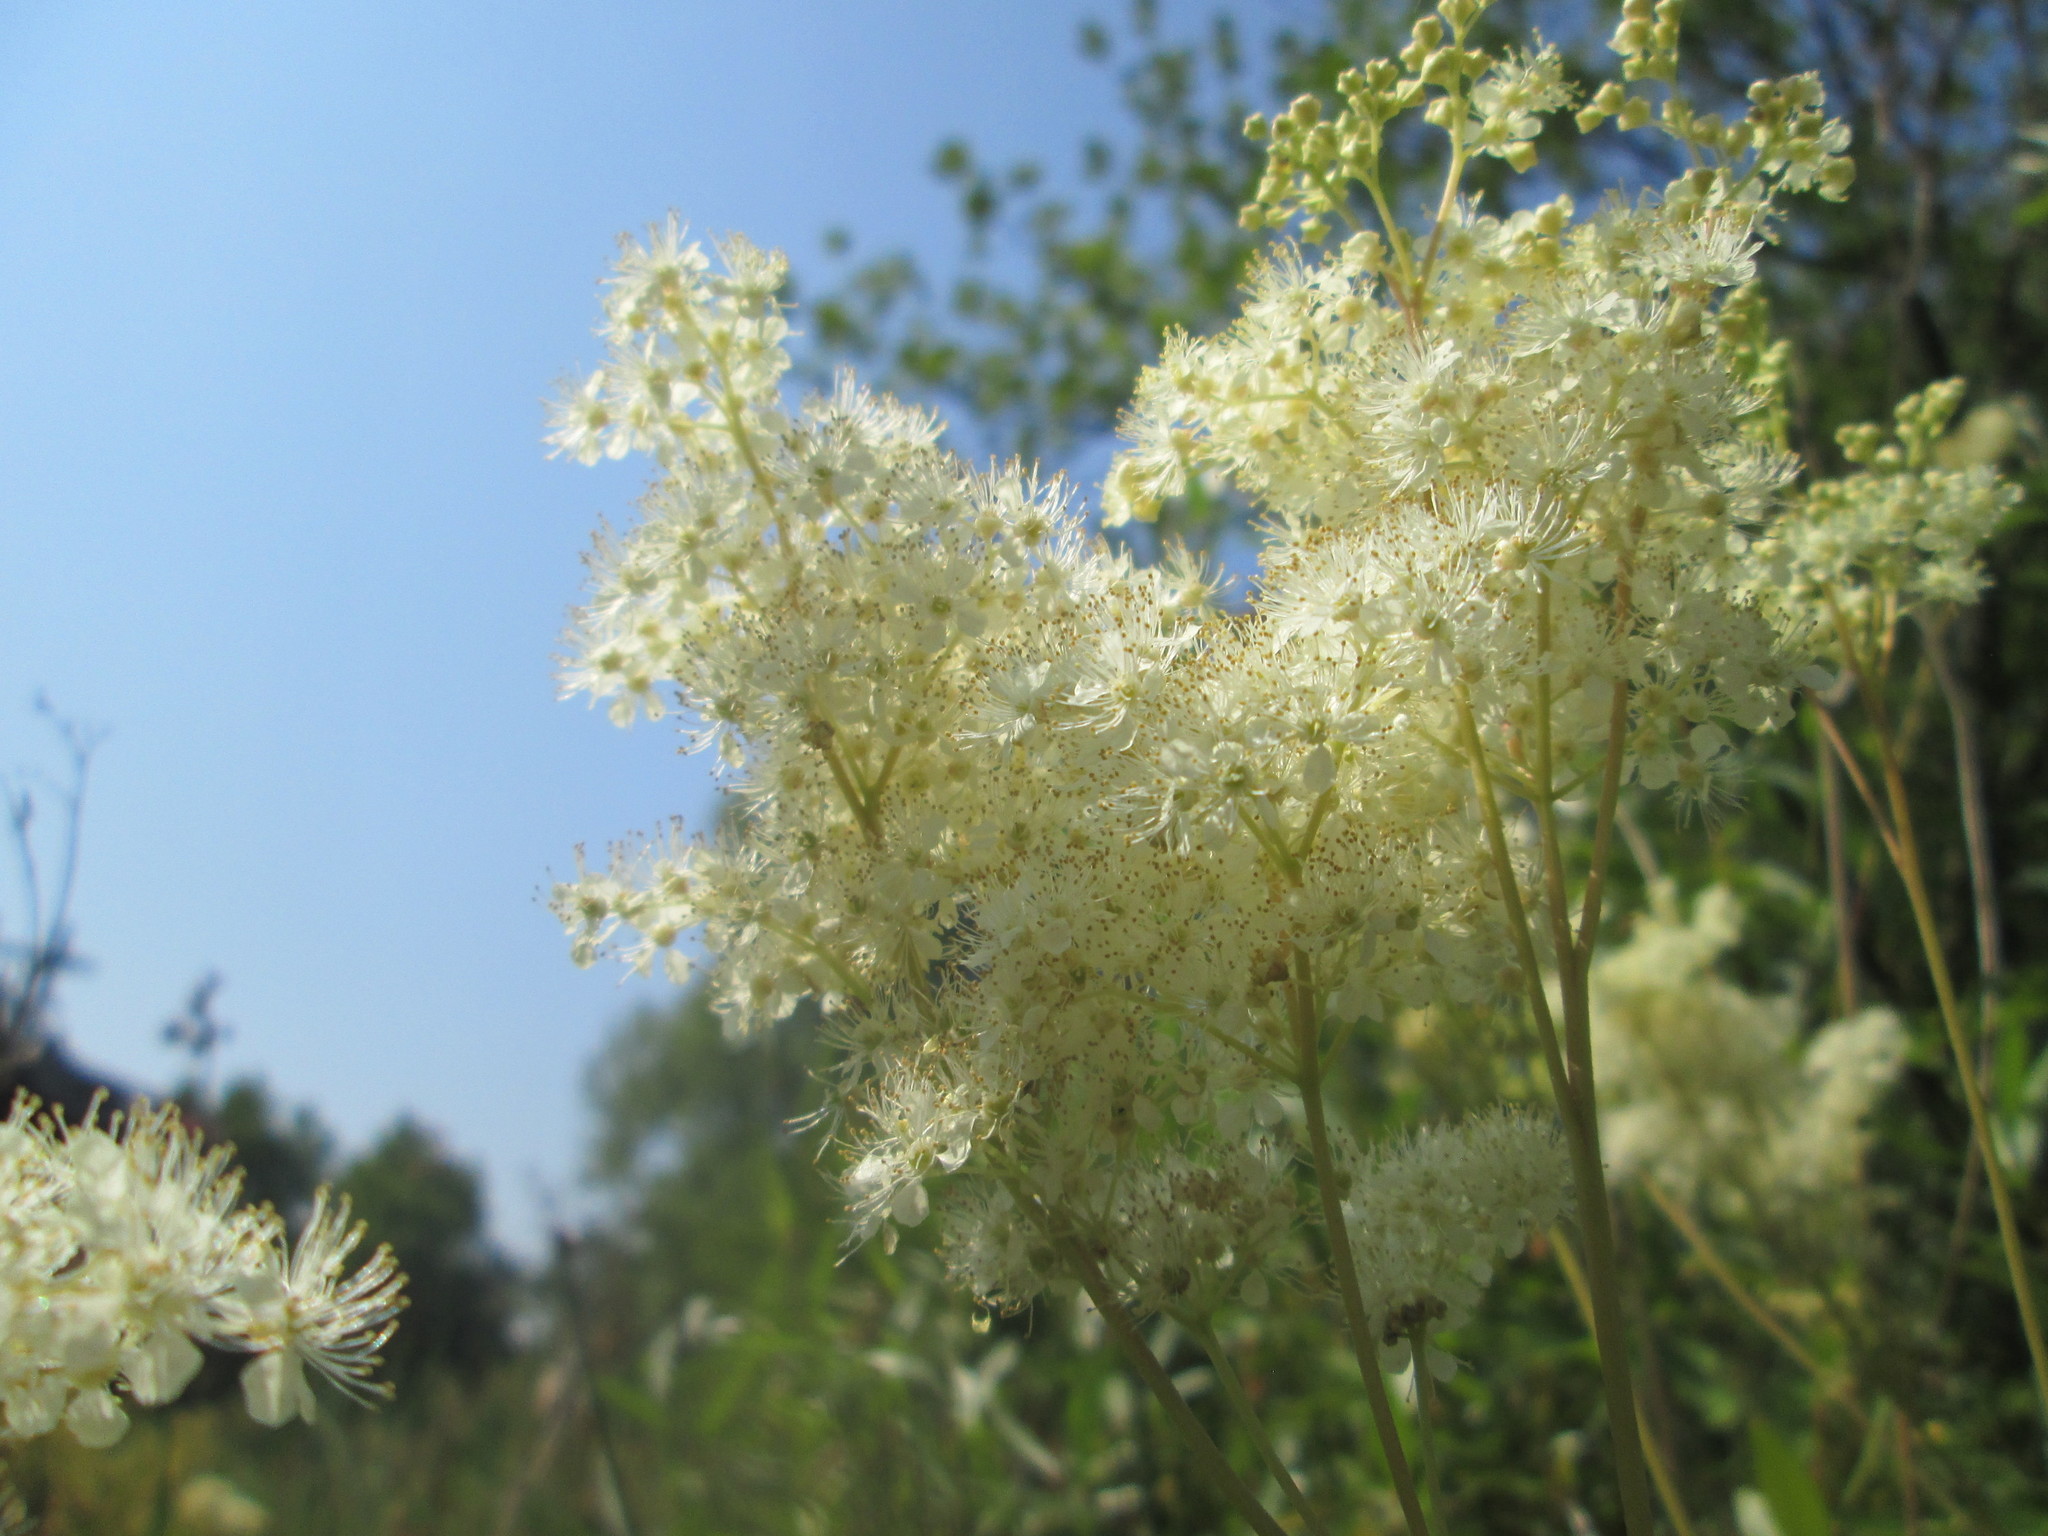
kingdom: Plantae
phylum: Tracheophyta
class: Magnoliopsida
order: Rosales
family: Rosaceae
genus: Filipendula
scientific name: Filipendula ulmaria
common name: Meadowsweet
